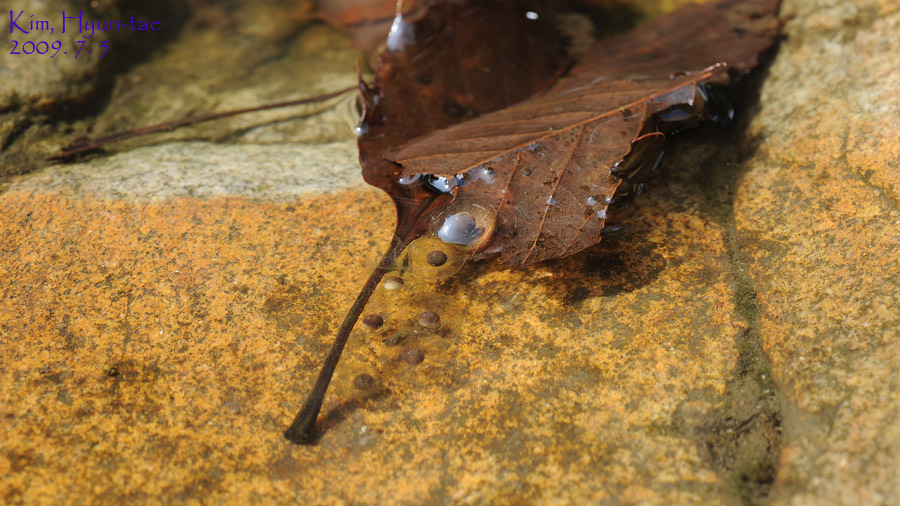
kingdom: Animalia
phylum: Chordata
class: Amphibia
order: Anura
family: Bombinatoridae
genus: Bombina
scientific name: Bombina orientalis
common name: Oriental firebelly toad
